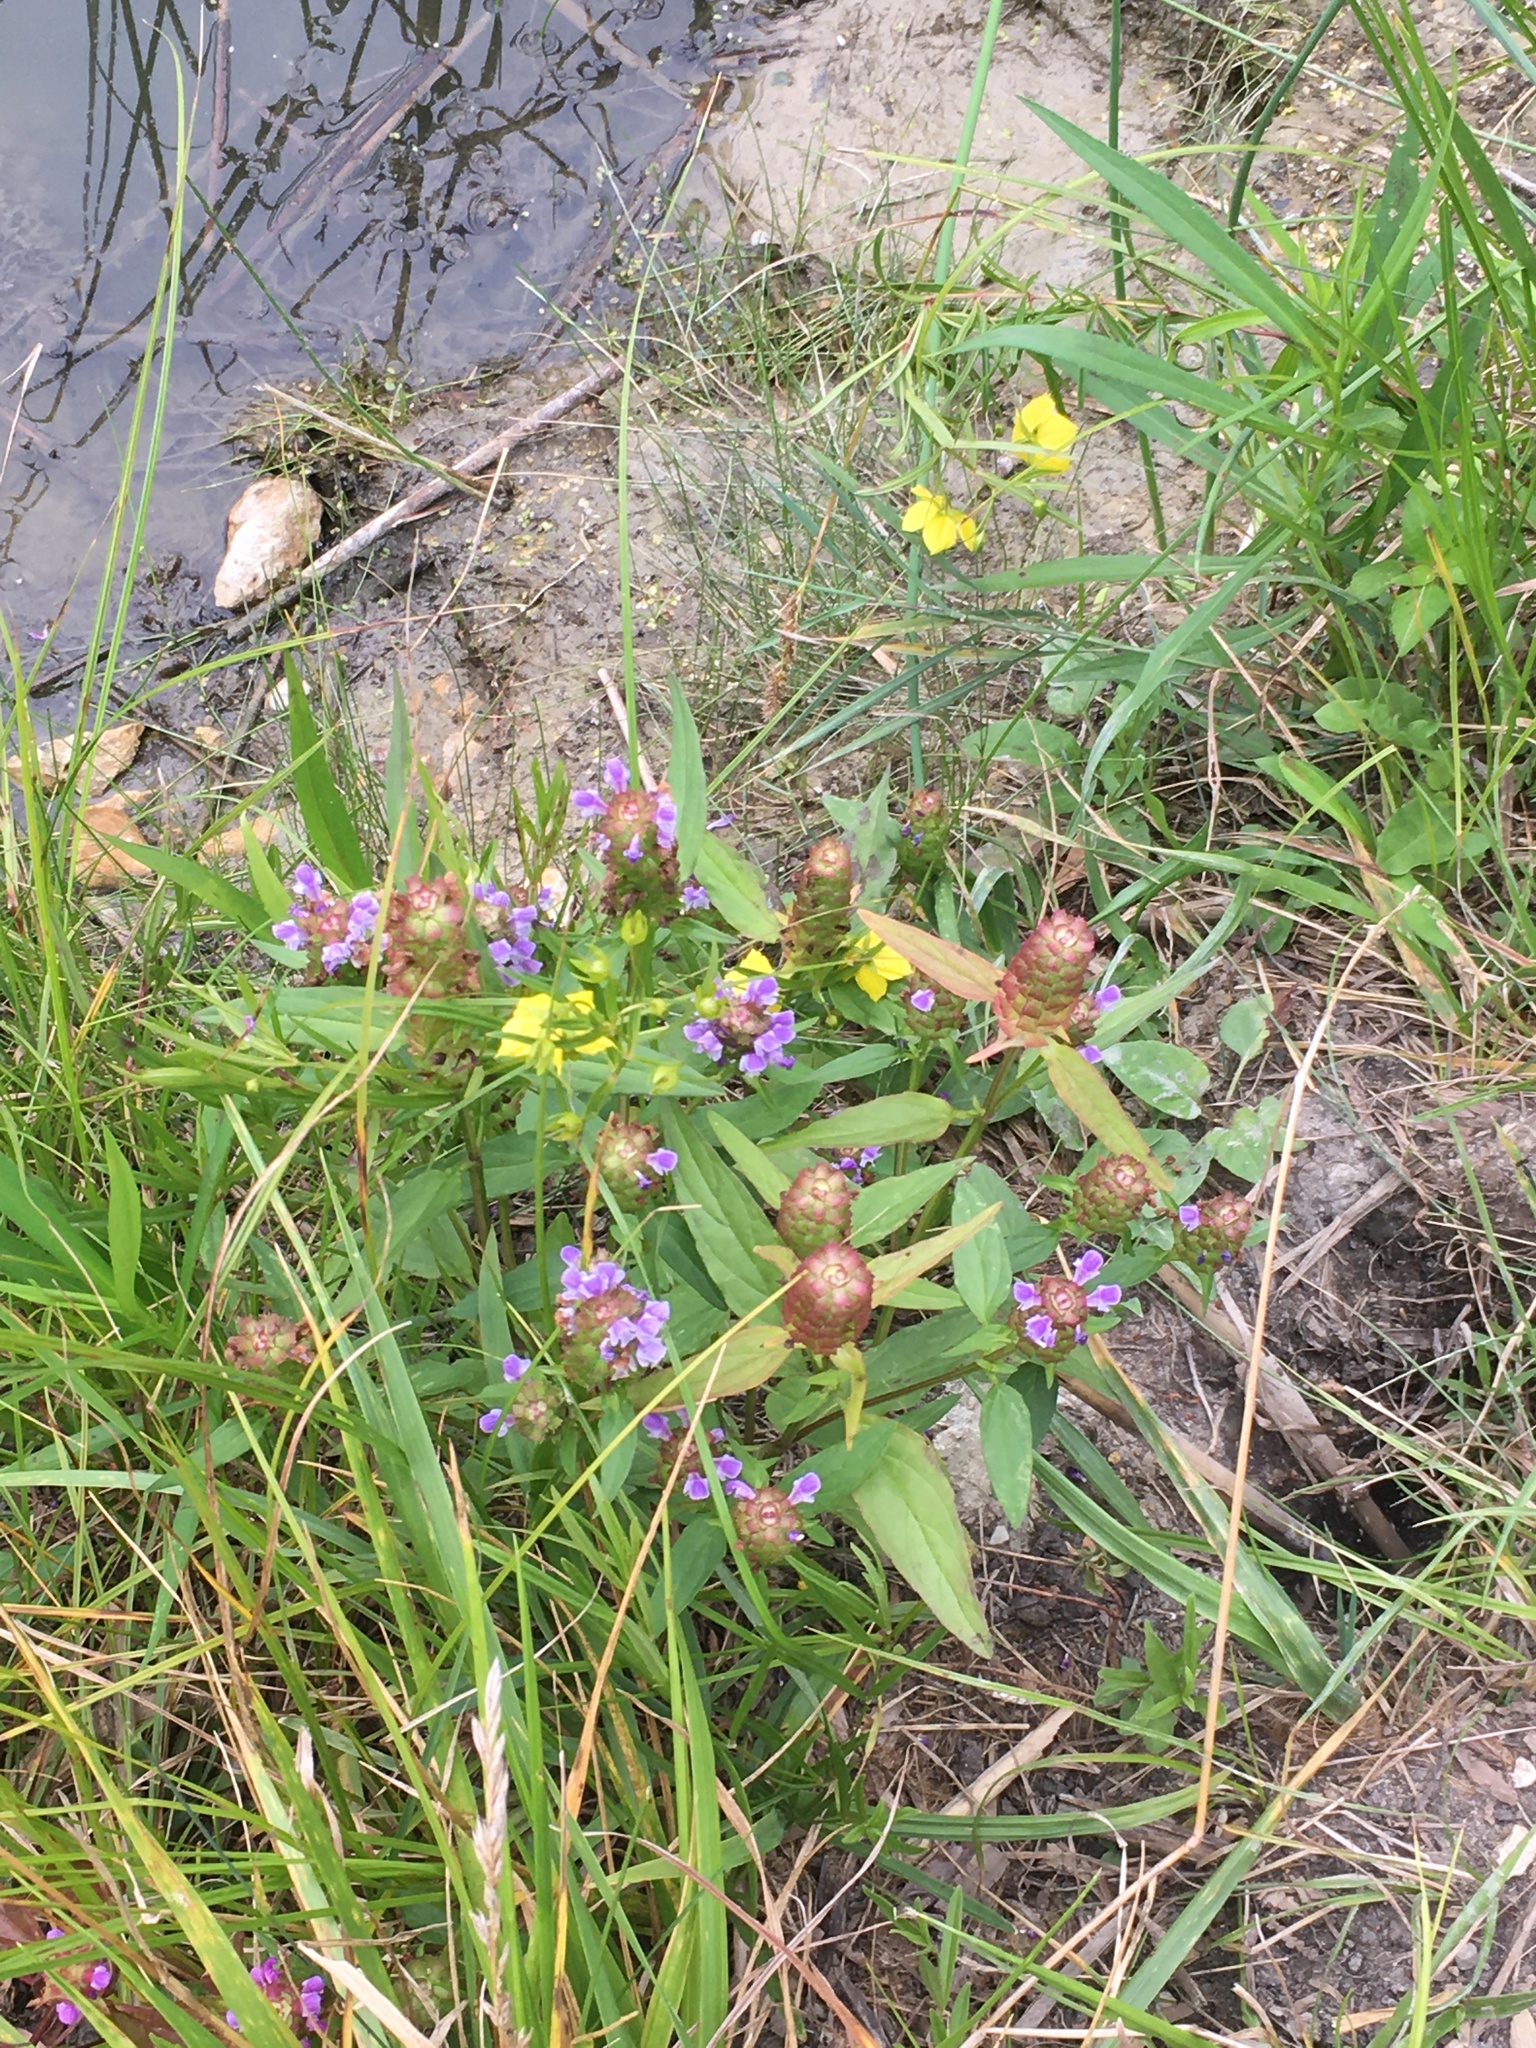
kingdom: Plantae
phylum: Tracheophyta
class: Magnoliopsida
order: Lamiales
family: Lamiaceae
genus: Prunella
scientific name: Prunella vulgaris
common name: Heal-all
